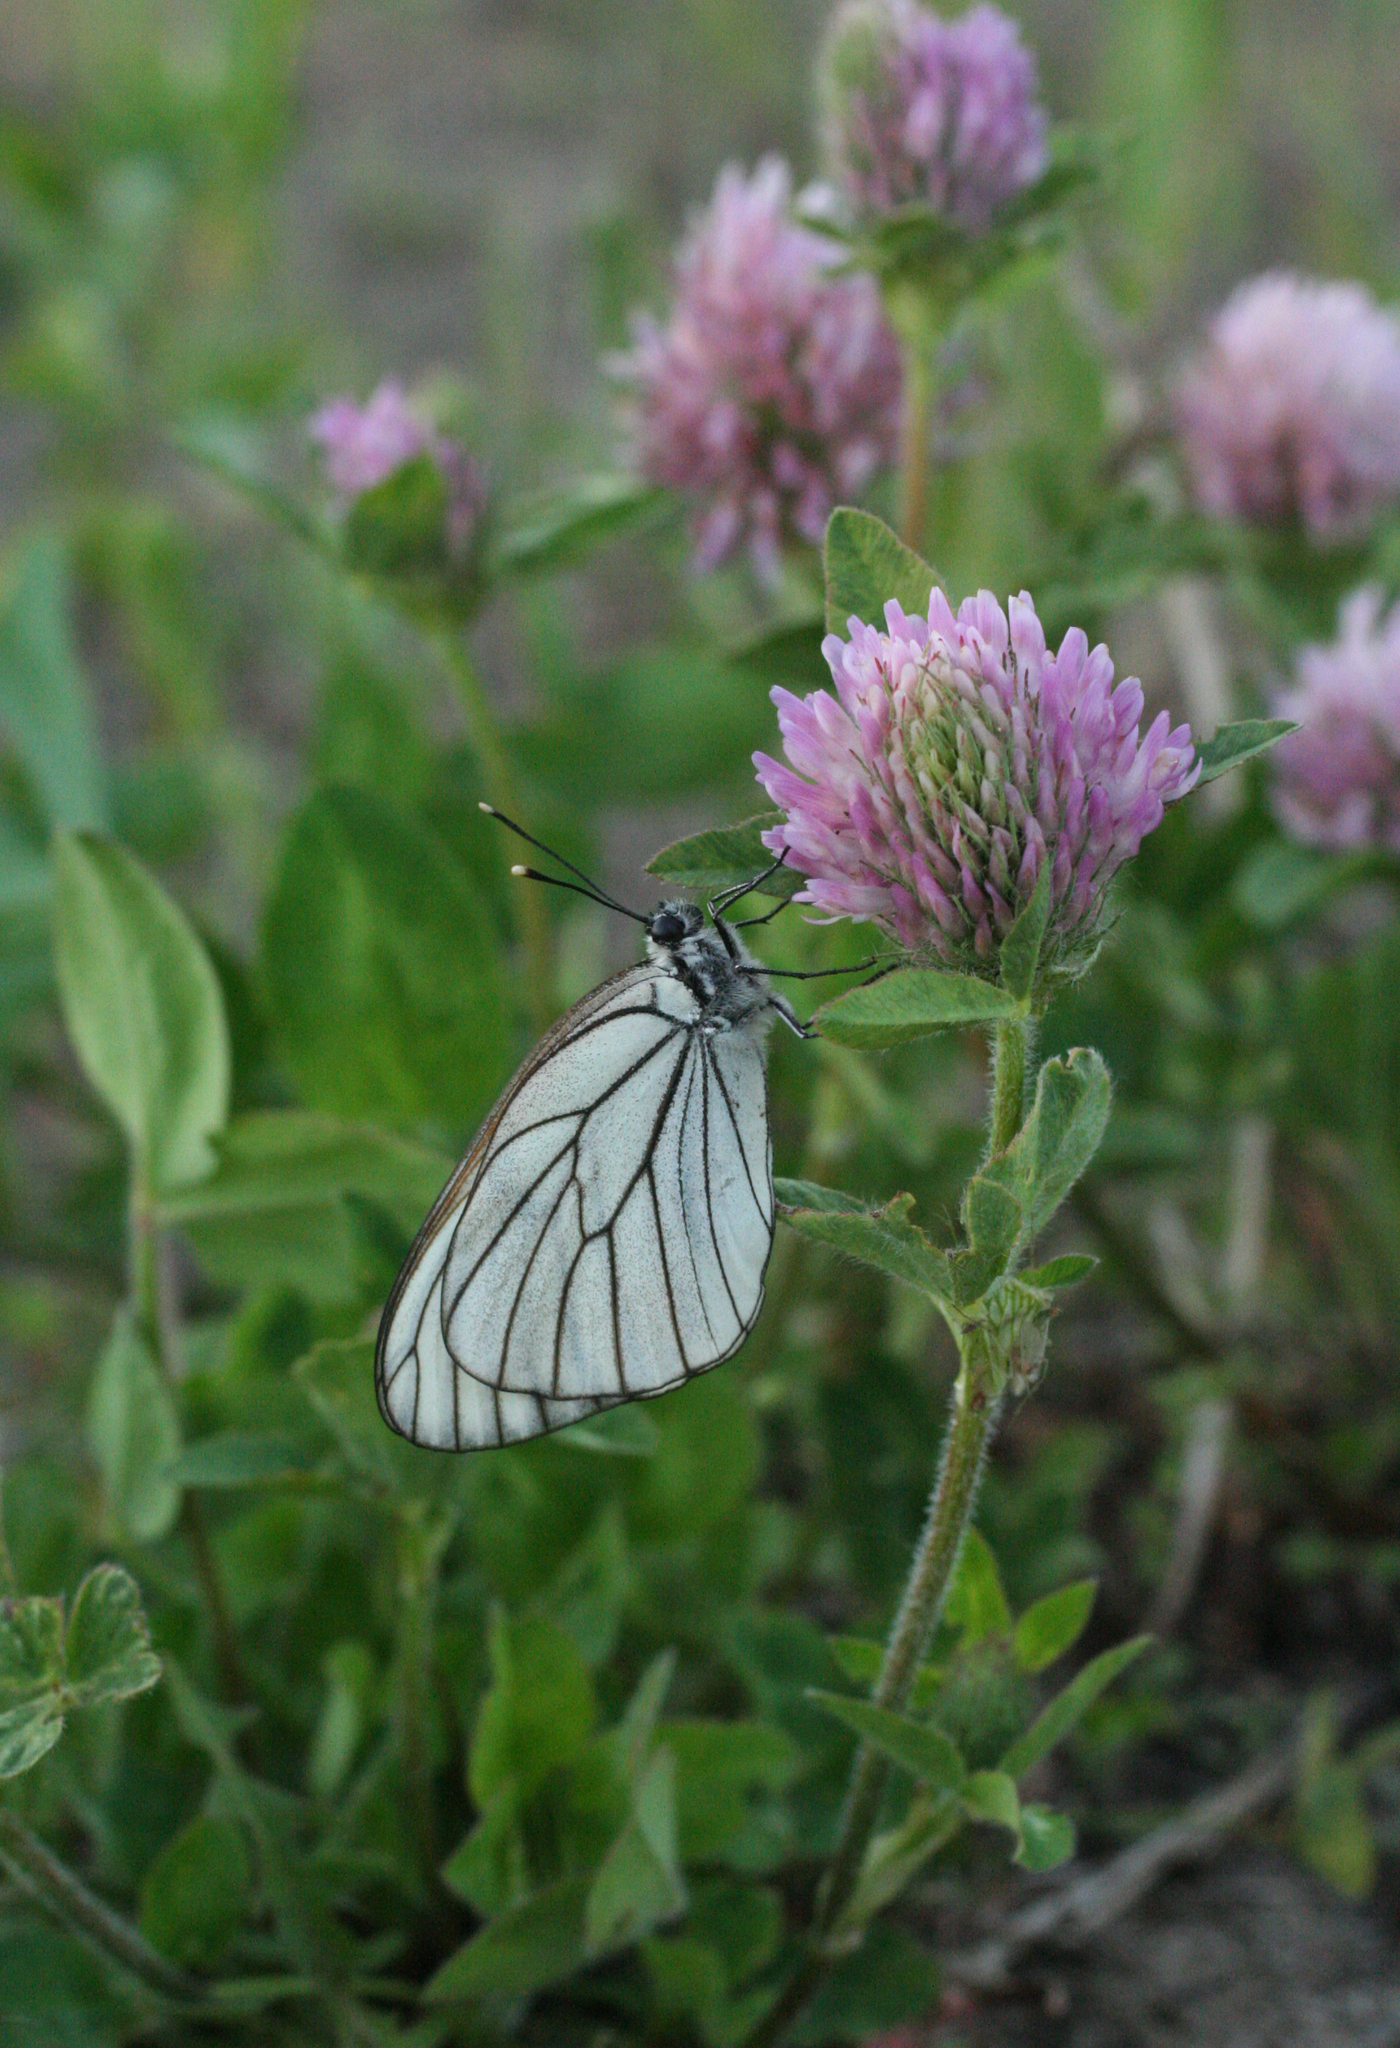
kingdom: Animalia
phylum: Arthropoda
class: Insecta
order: Lepidoptera
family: Pieridae
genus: Aporia
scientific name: Aporia crataegi
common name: Black-veined white
